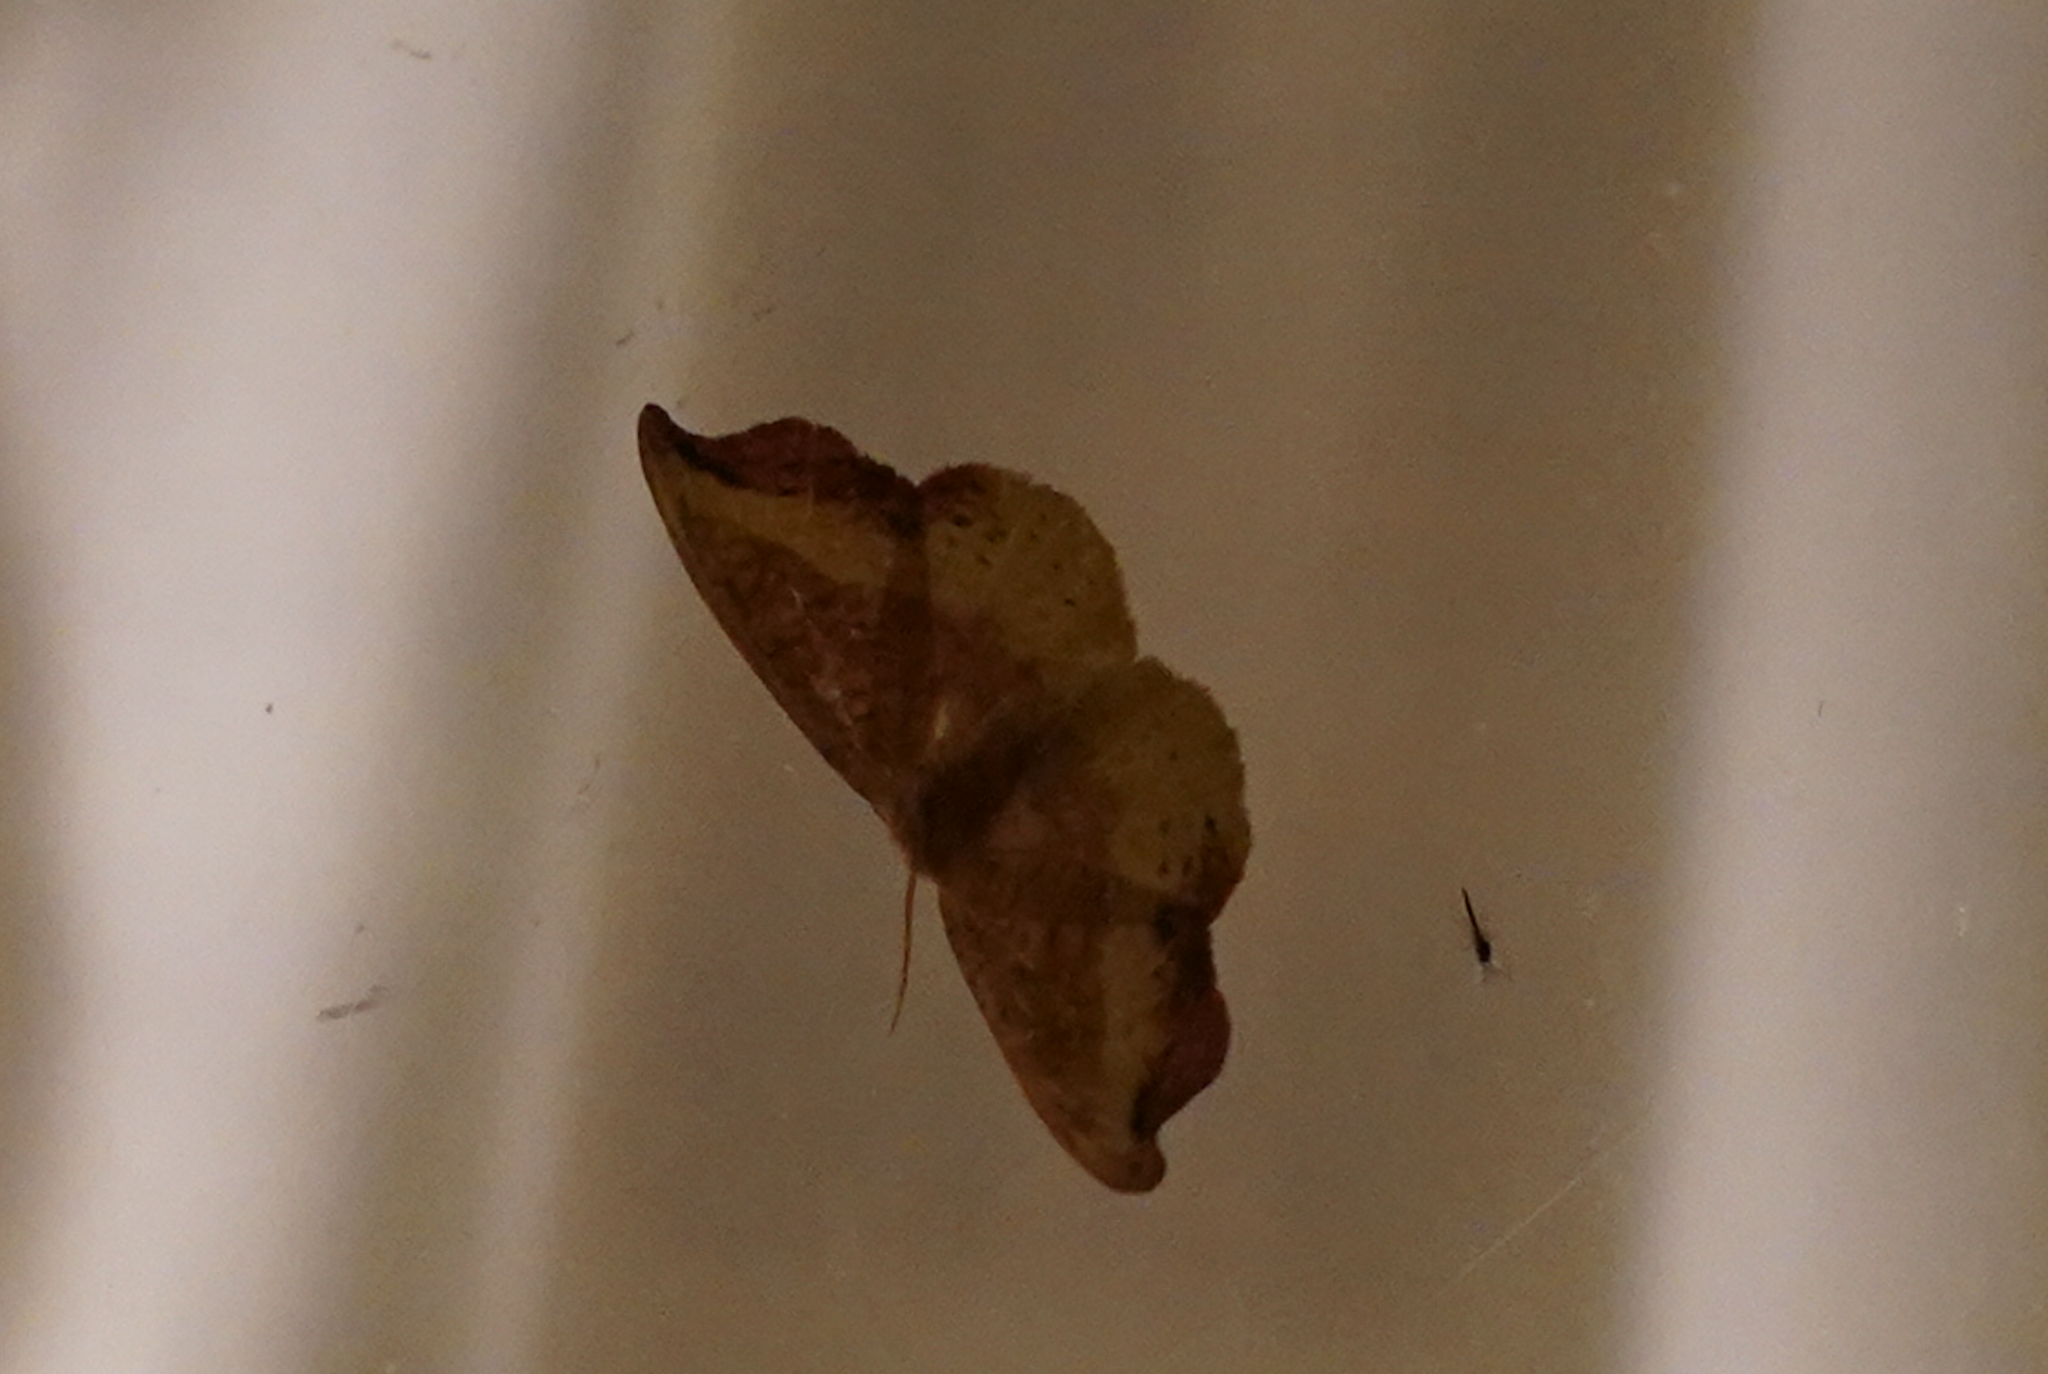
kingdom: Animalia
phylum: Arthropoda
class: Insecta
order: Lepidoptera
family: Drepanidae
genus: Oreta
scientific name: Oreta rosea
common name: Rose hooktip
